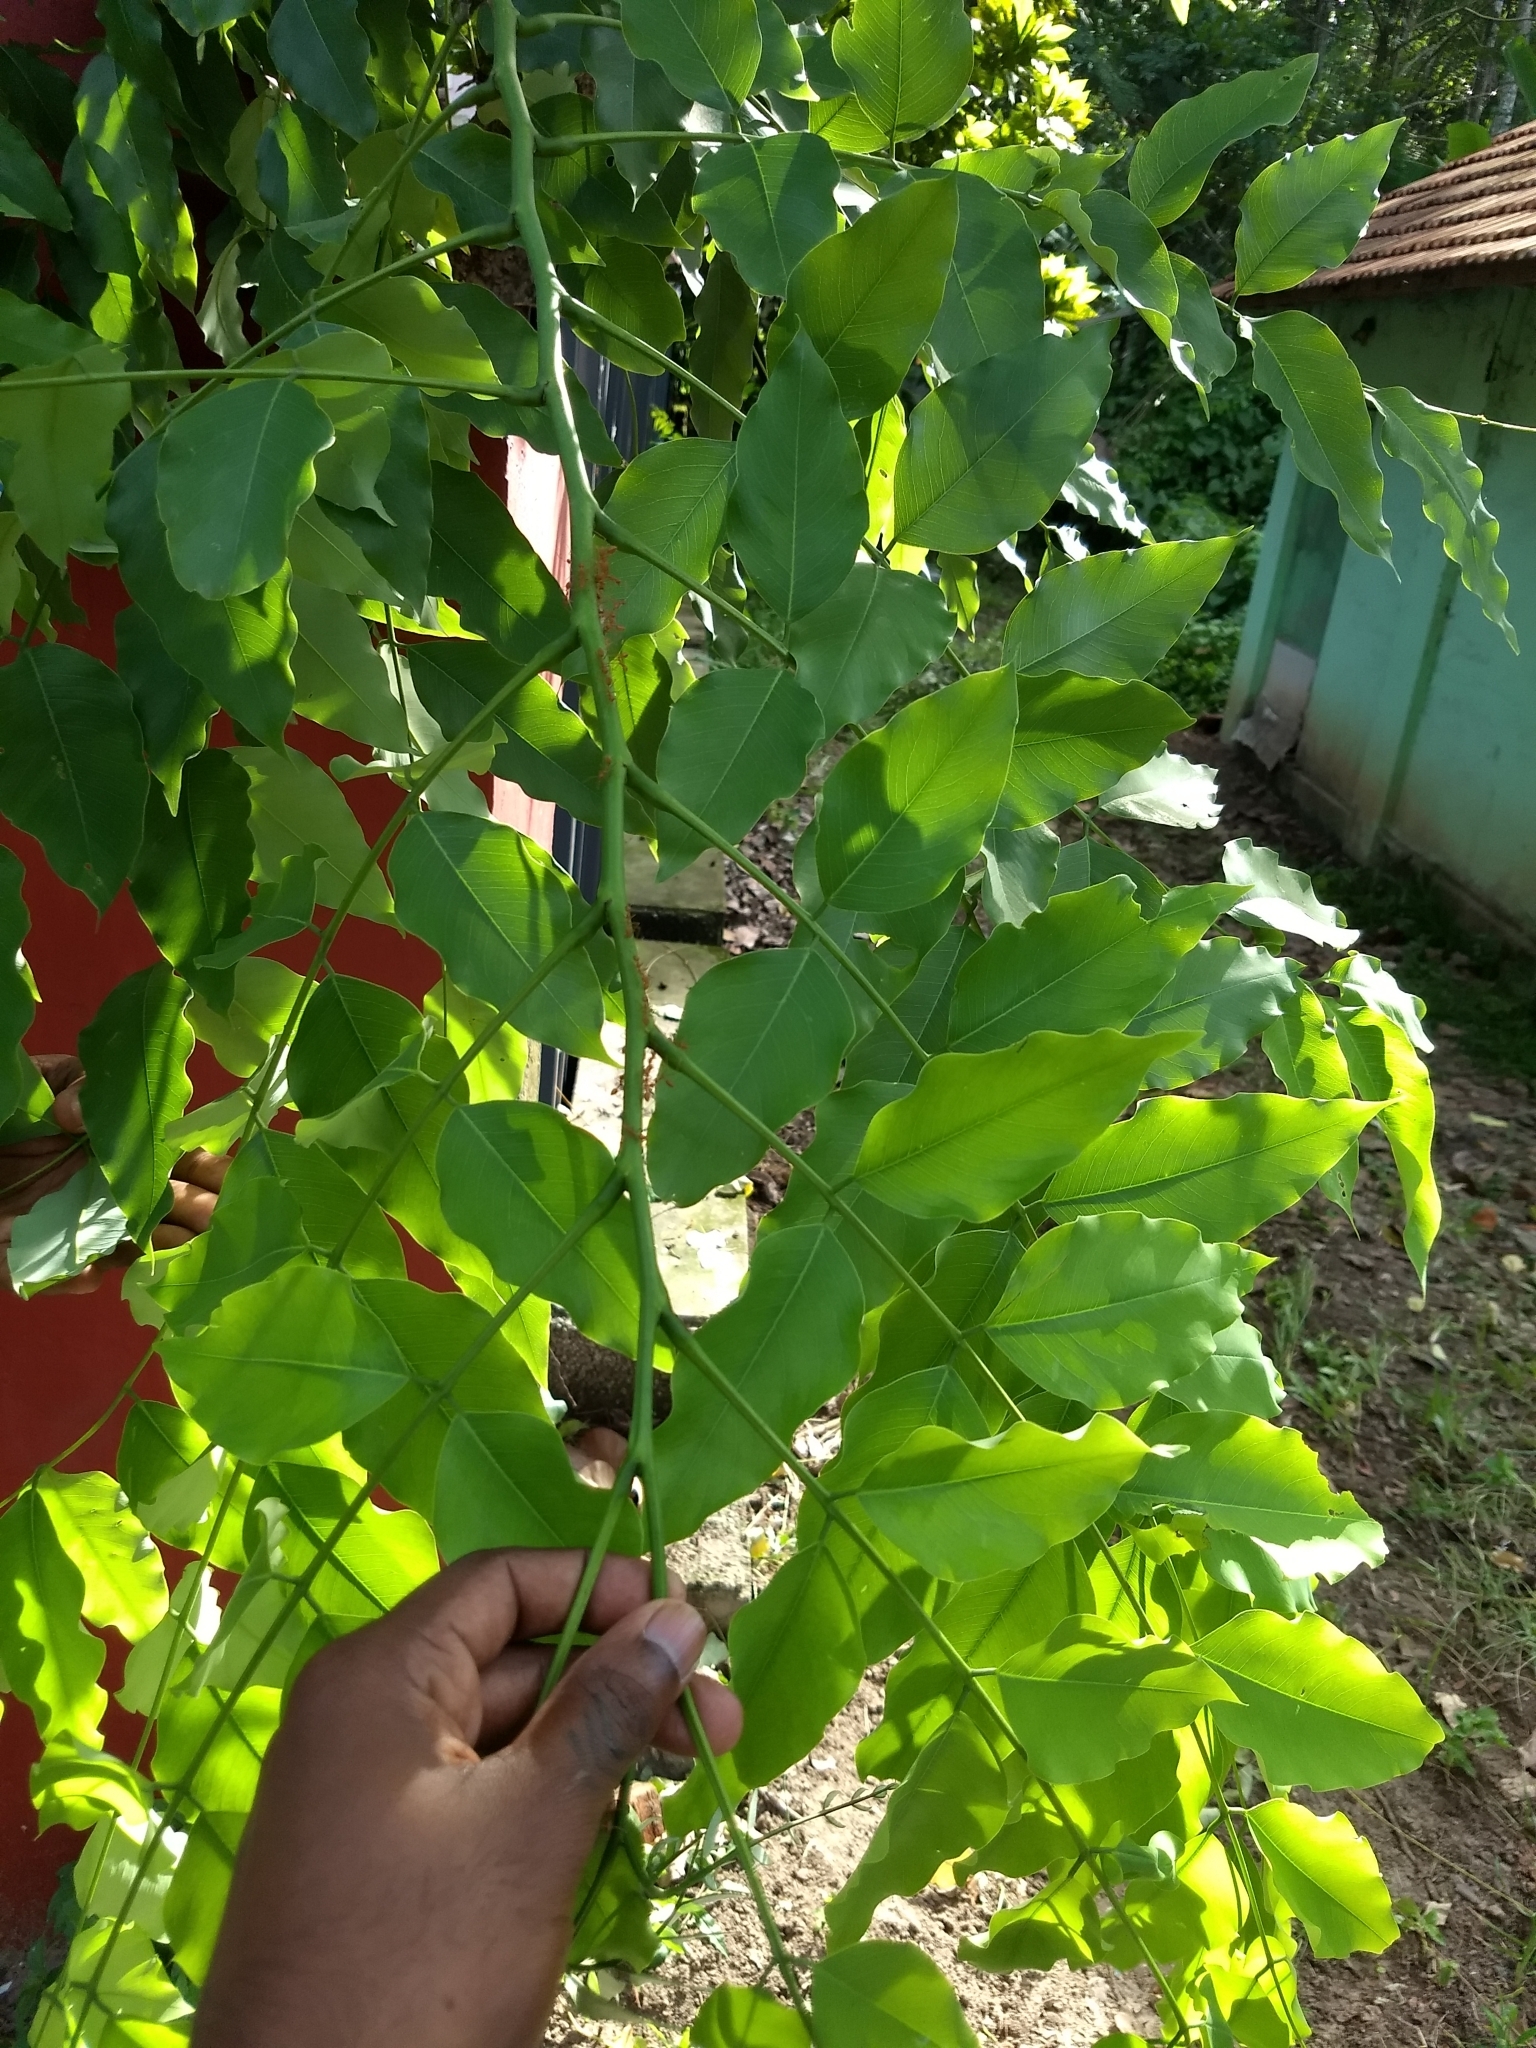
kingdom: Plantae
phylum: Tracheophyta
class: Magnoliopsida
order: Fabales
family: Fabaceae
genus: Cassia
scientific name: Cassia fistula
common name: Golden shower
